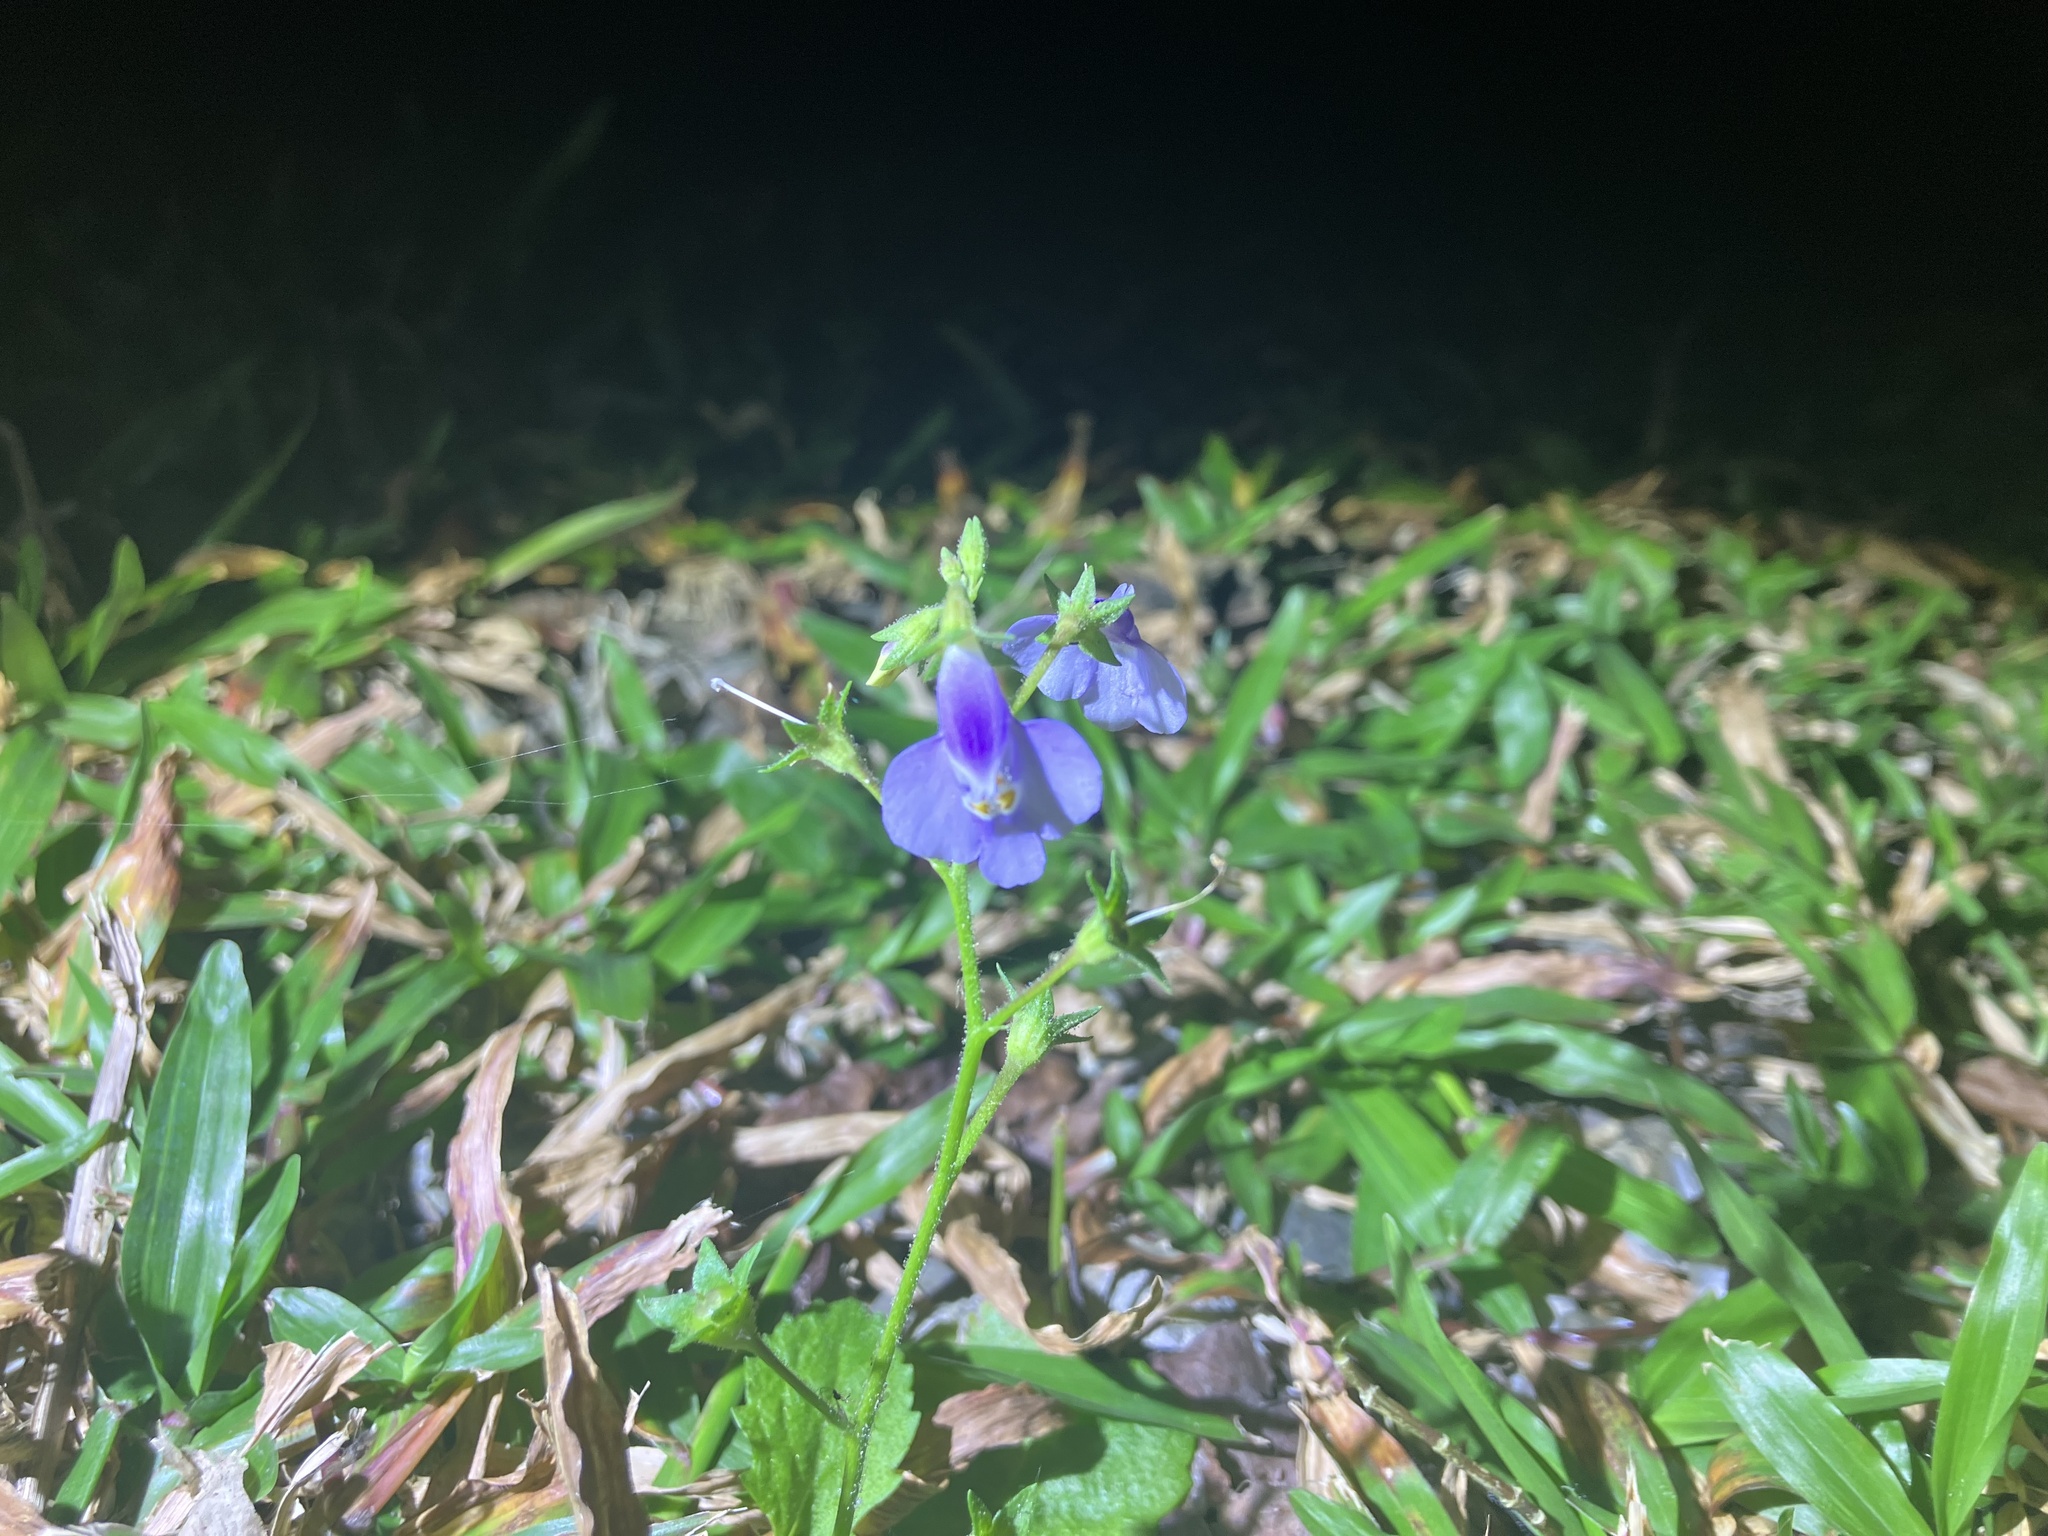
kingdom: Plantae
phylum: Tracheophyta
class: Magnoliopsida
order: Lamiales
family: Mazaceae
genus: Mazus
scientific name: Mazus fauriei
